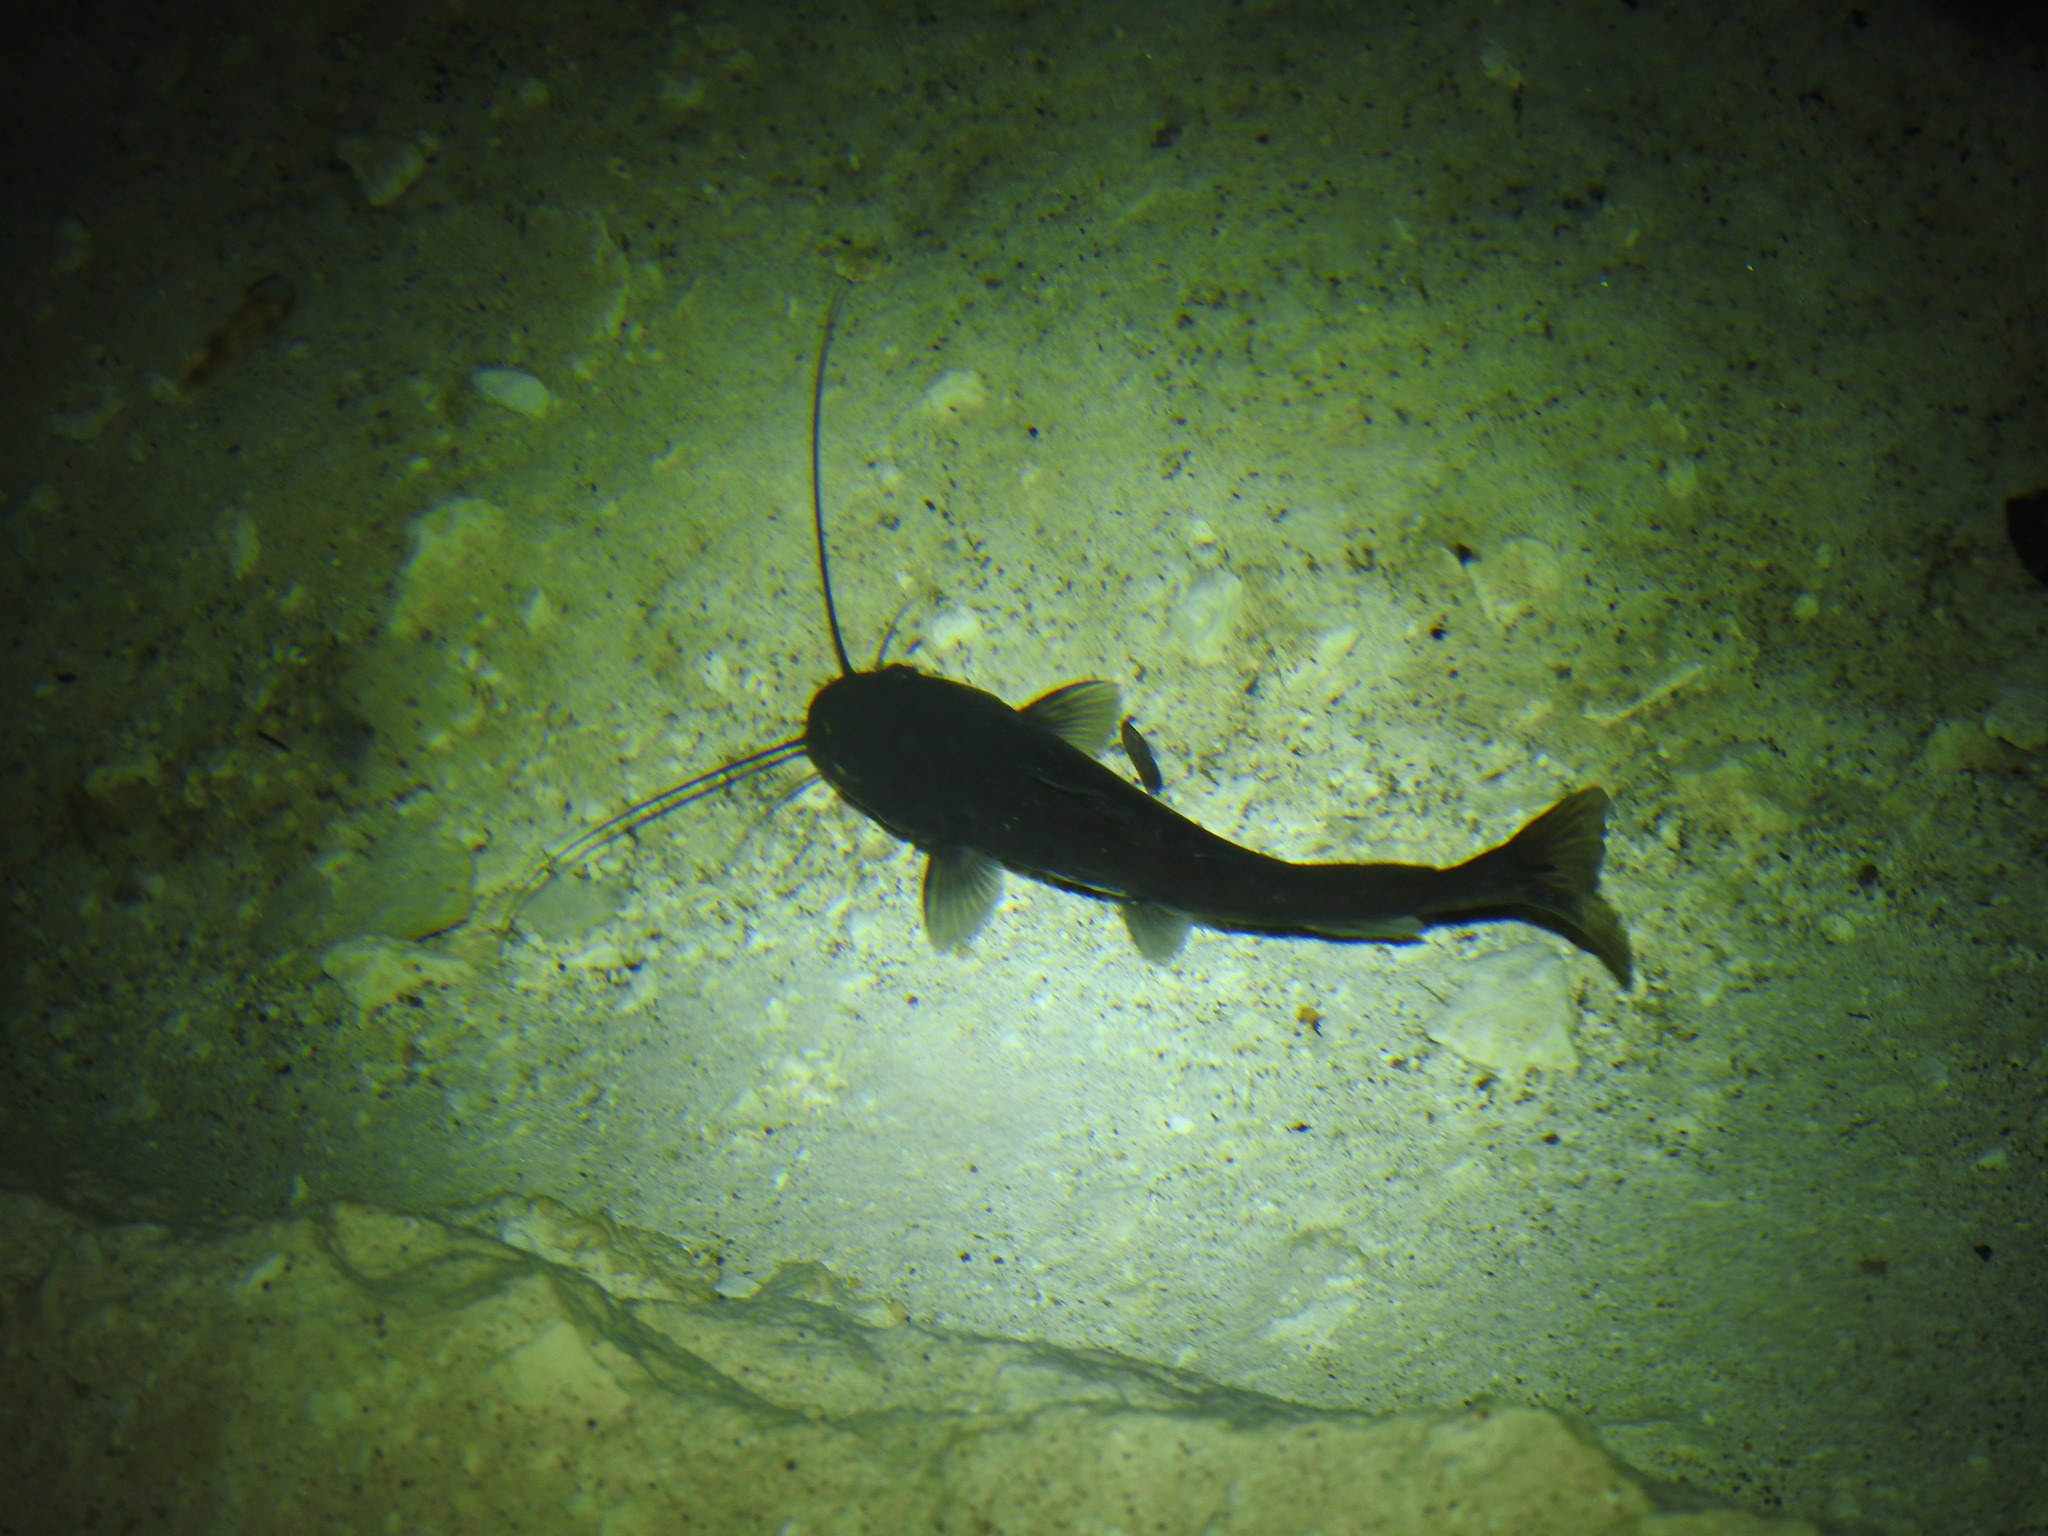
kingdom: Animalia
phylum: Chordata
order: Siluriformes
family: Heptapteridae
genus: Rhamdia
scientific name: Rhamdia guatemalensis
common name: Pale catfish
